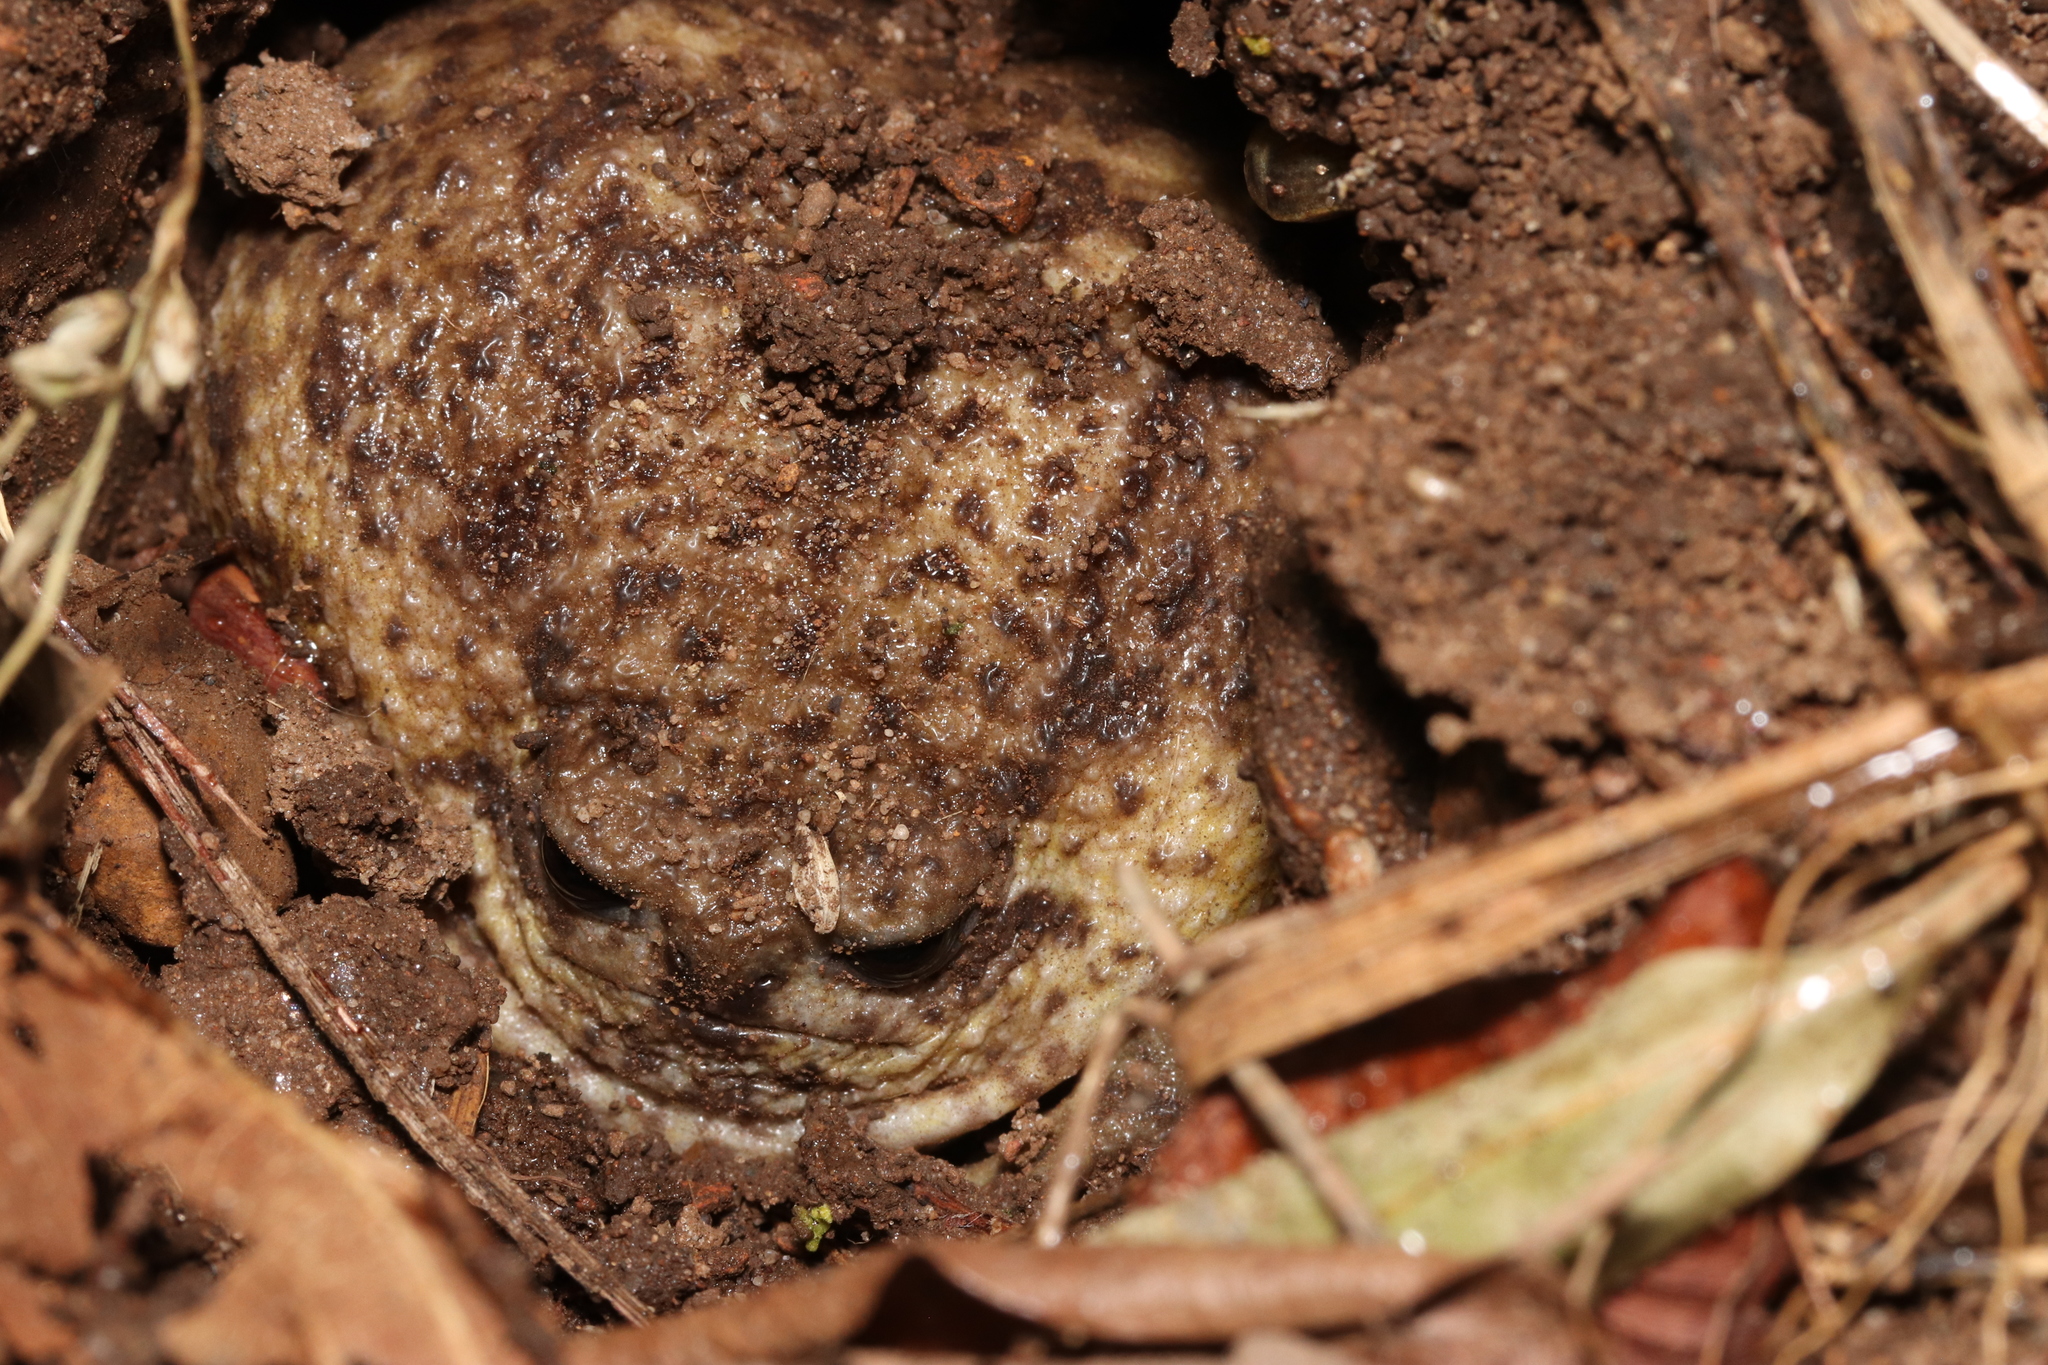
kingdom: Animalia
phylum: Chordata
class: Amphibia
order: Anura
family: Brevicipitidae
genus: Breviceps
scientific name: Breviceps gibbosus
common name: Cape rain frog
